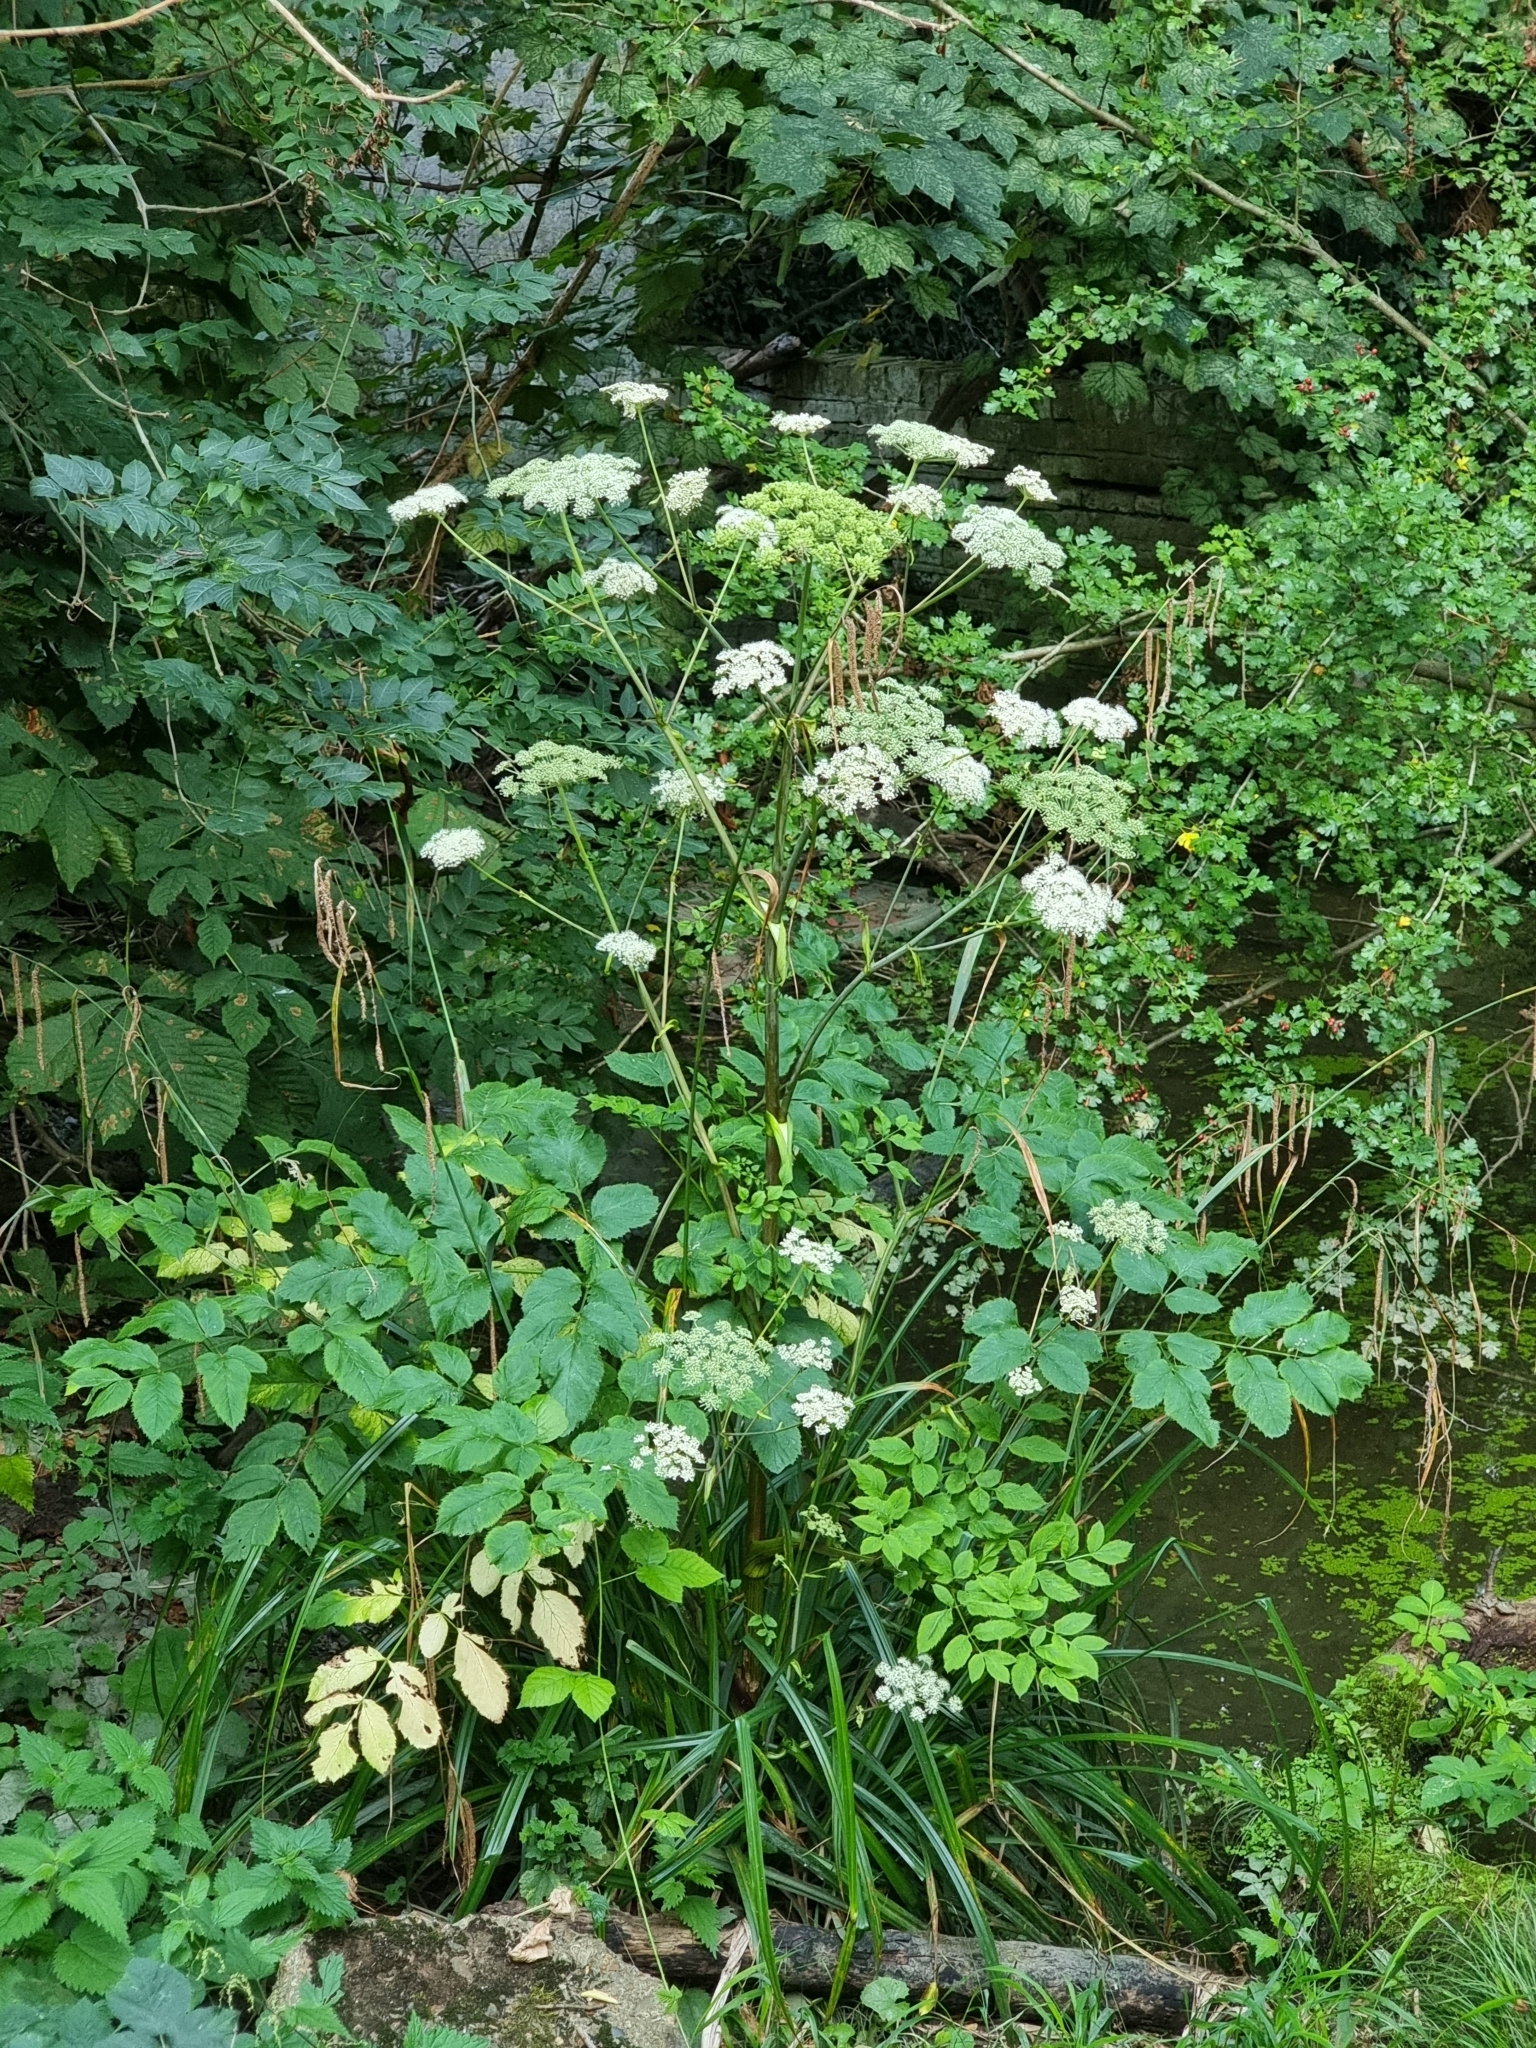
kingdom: Plantae
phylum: Tracheophyta
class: Magnoliopsida
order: Apiales
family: Apiaceae
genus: Angelica
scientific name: Angelica sylvestris
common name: Wild angelica
